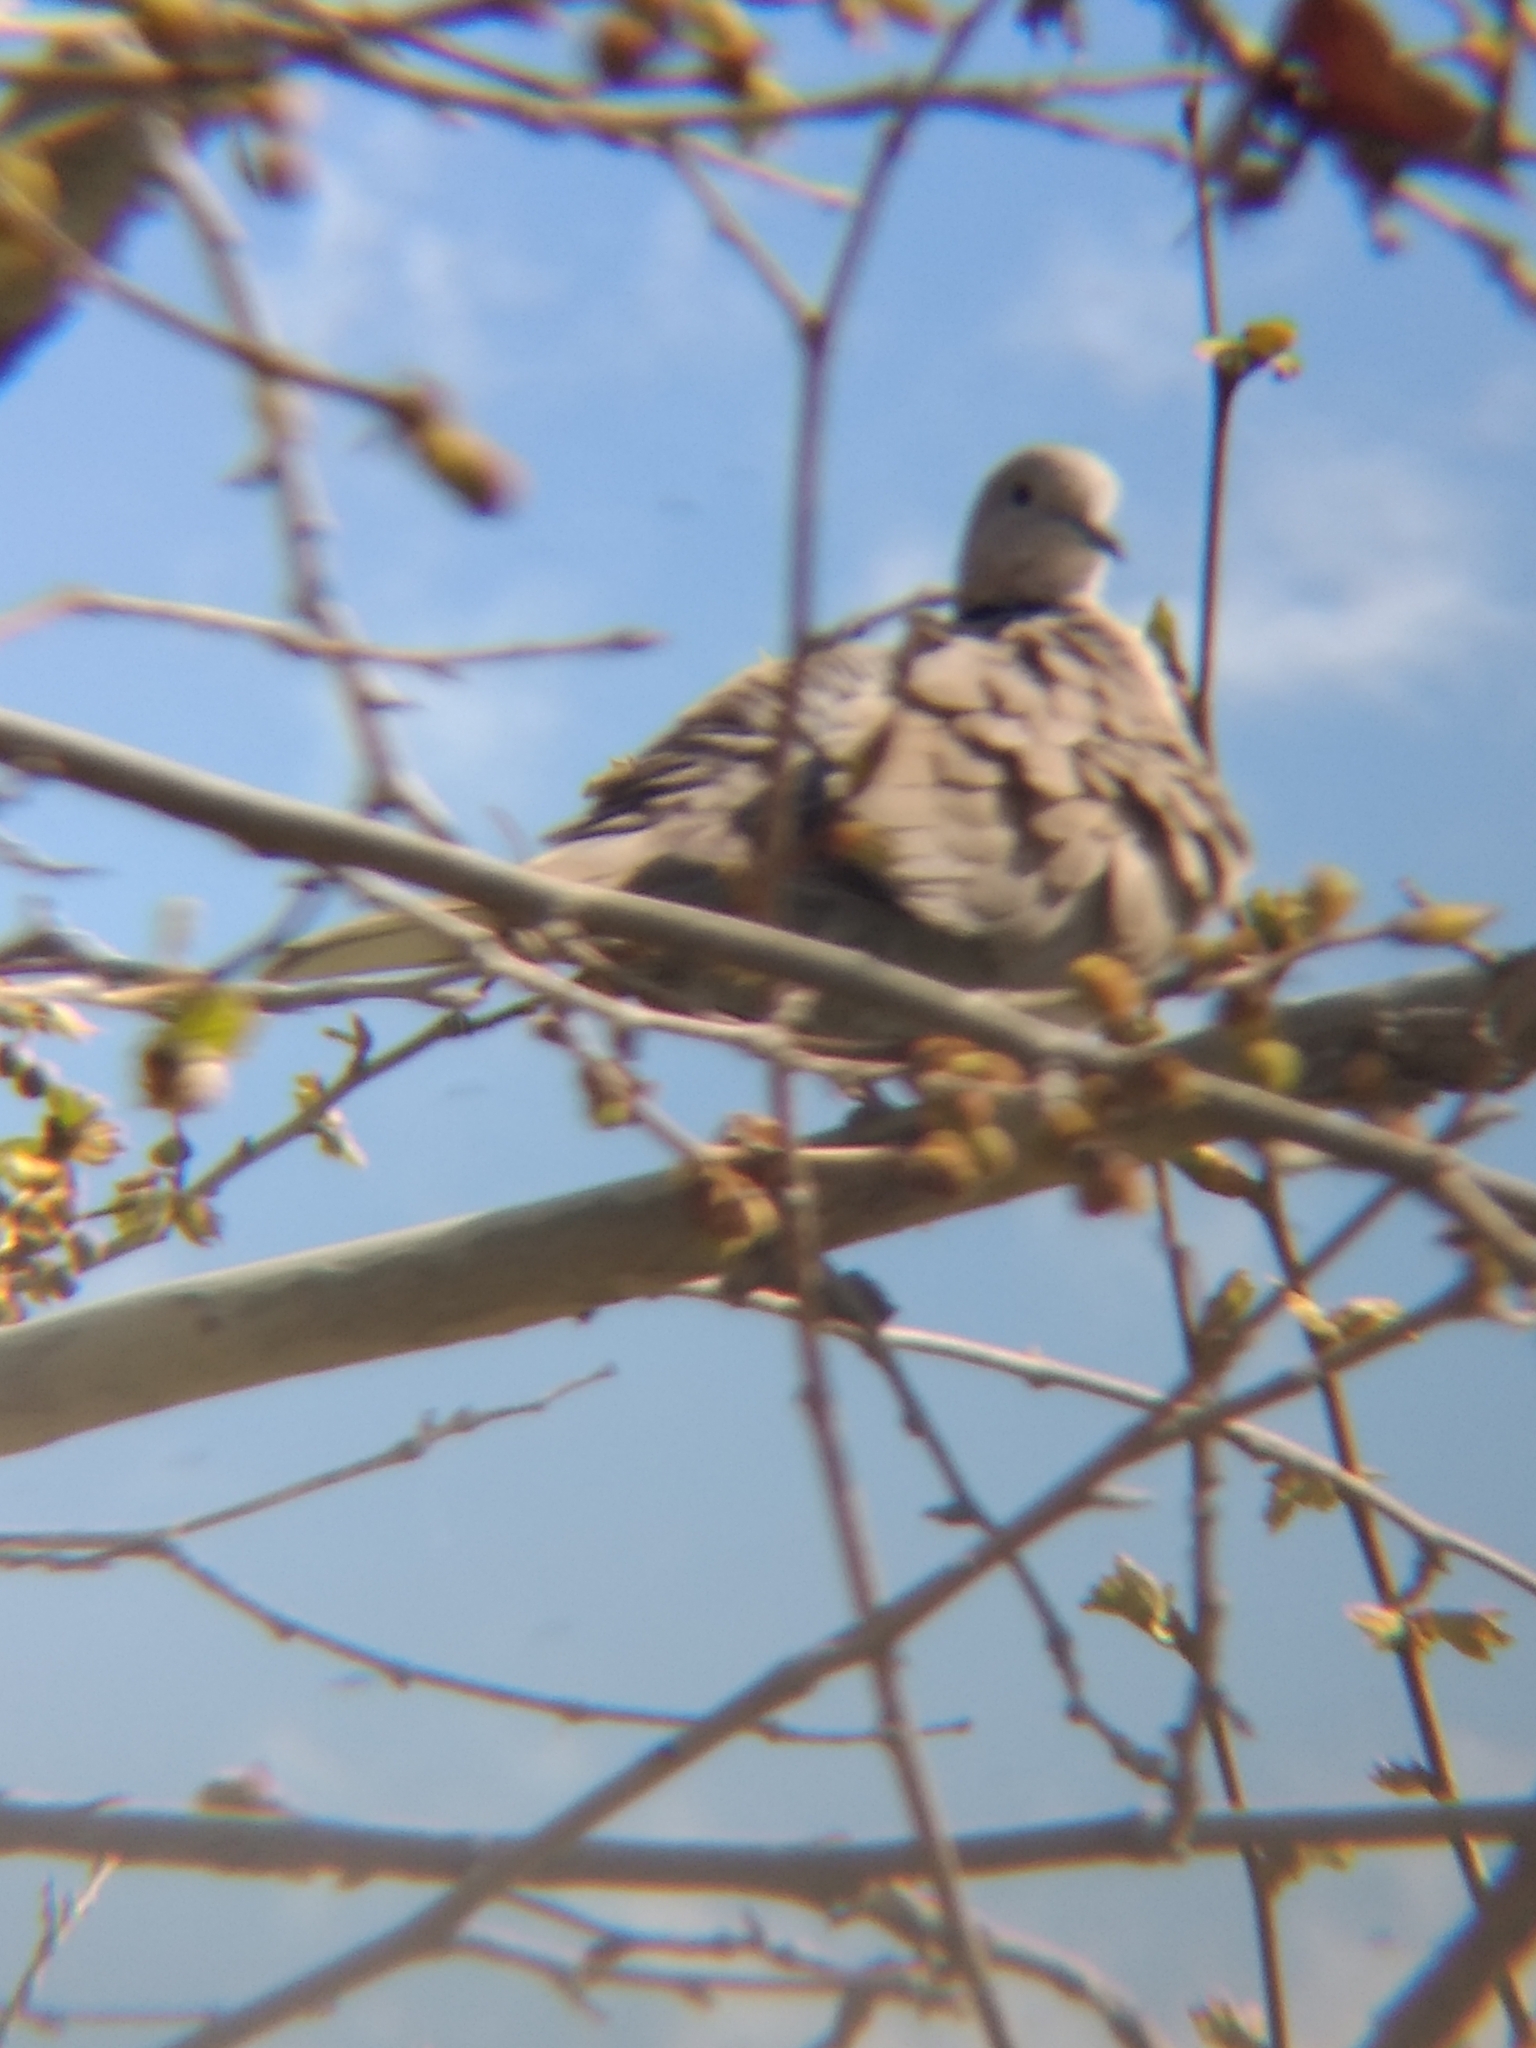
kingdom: Animalia
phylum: Chordata
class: Aves
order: Columbiformes
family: Columbidae
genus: Streptopelia
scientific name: Streptopelia decaocto
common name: Eurasian collared dove
